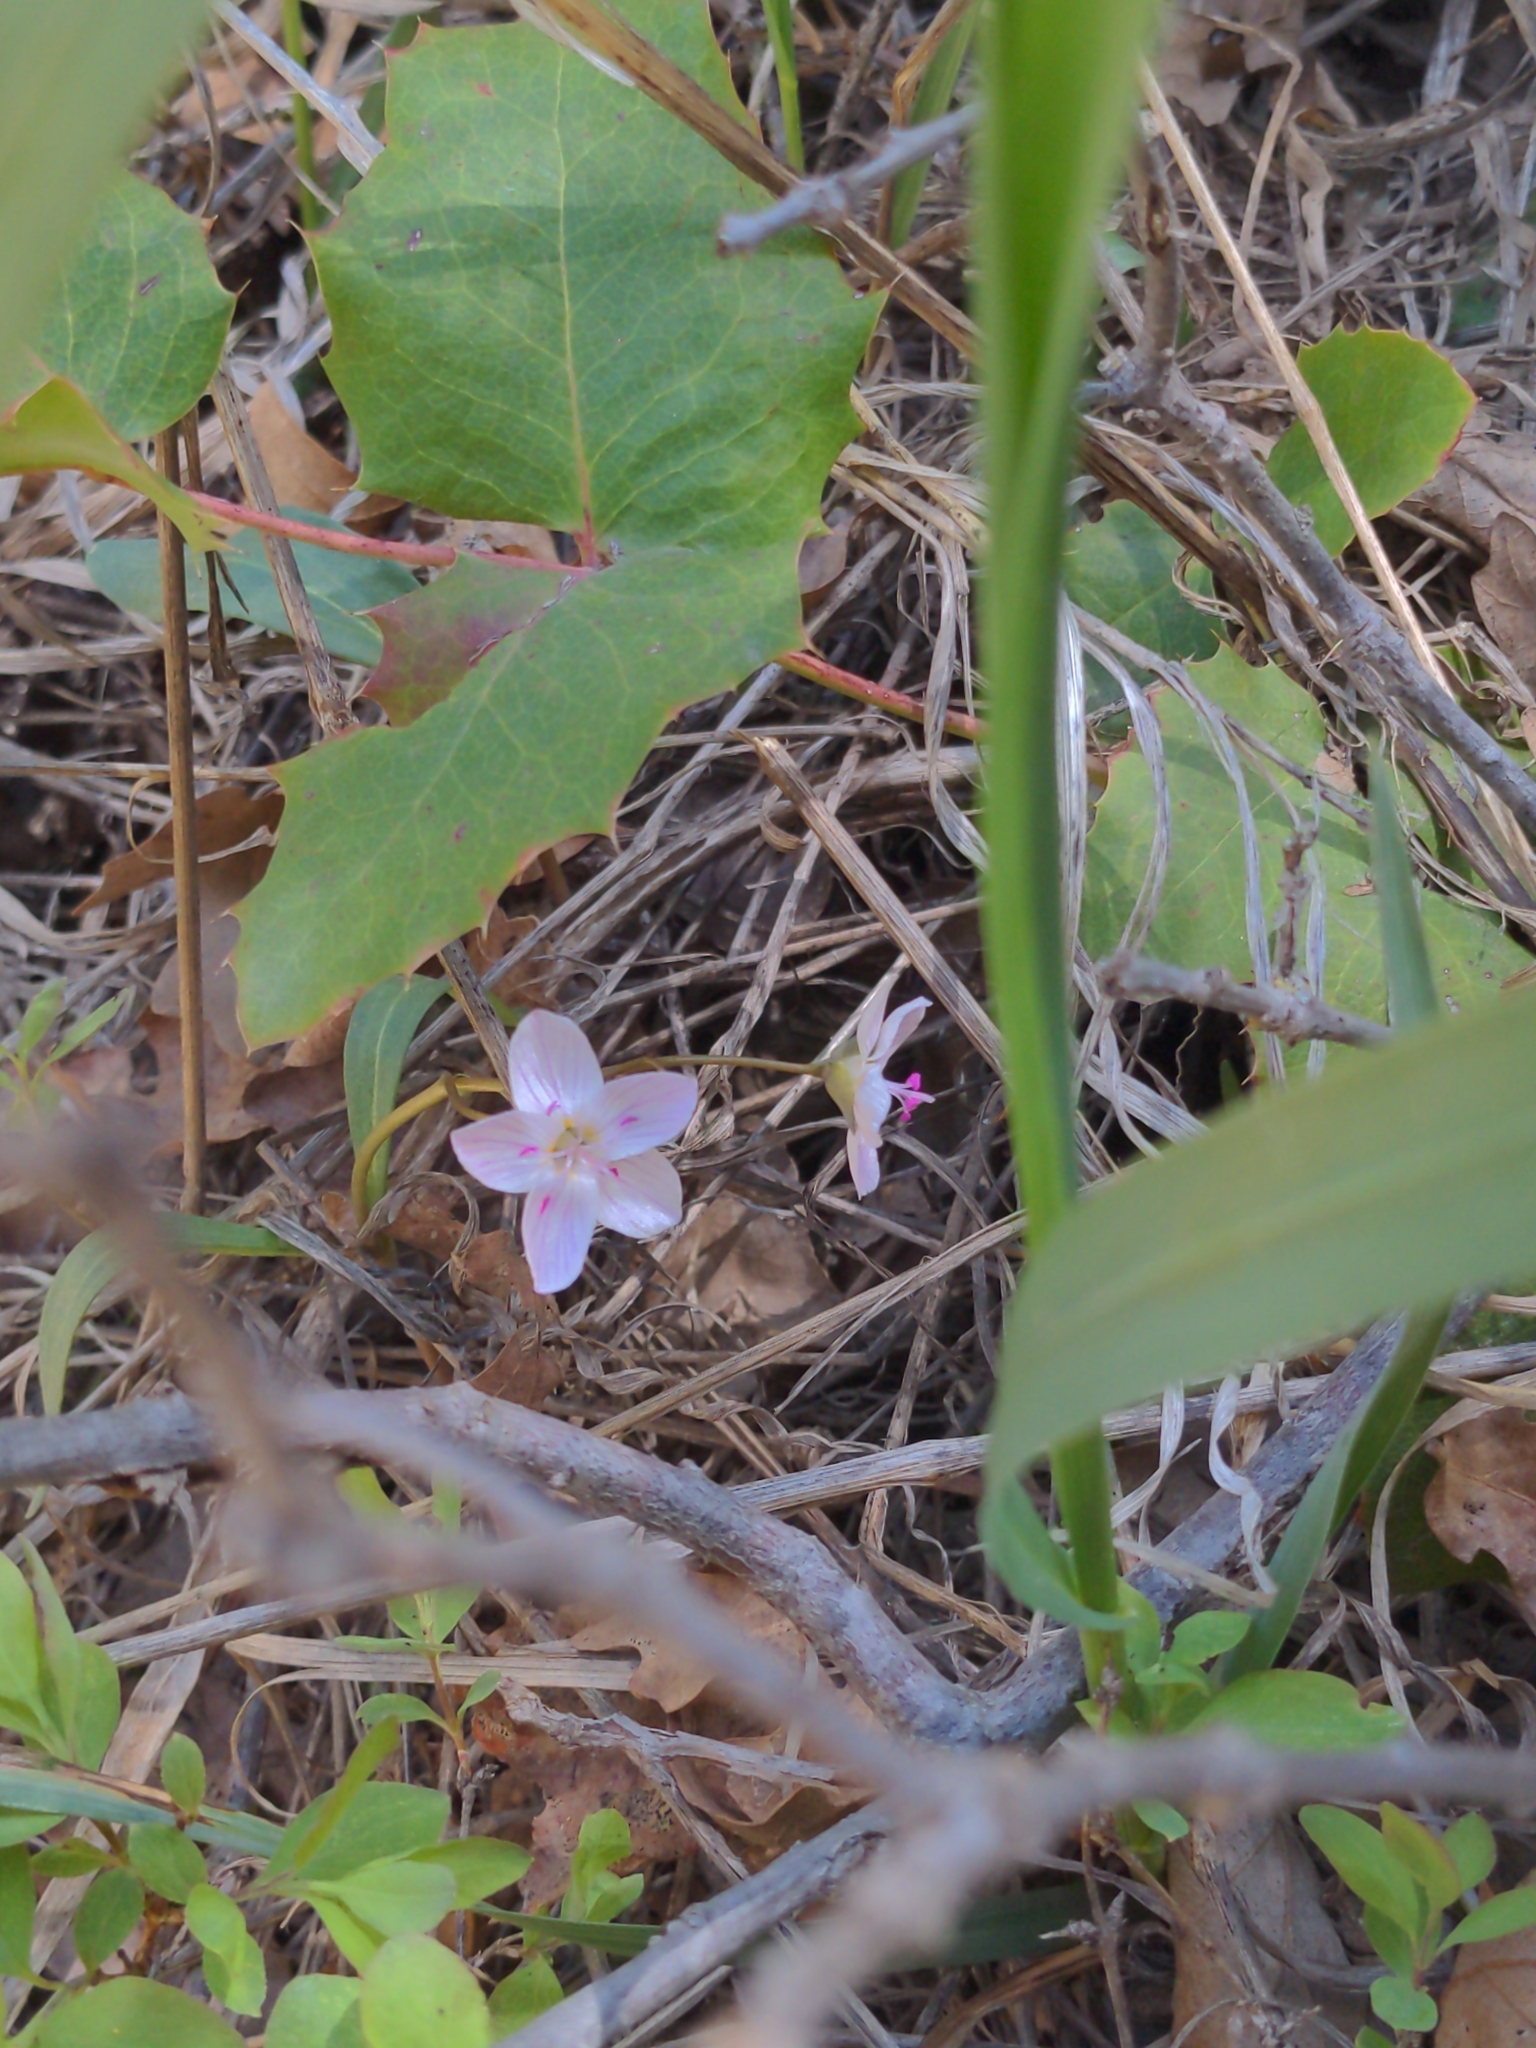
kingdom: Plantae
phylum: Tracheophyta
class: Magnoliopsida
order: Caryophyllales
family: Montiaceae
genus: Claytonia
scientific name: Claytonia rosea
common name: Rocky mountain spring-beauty
